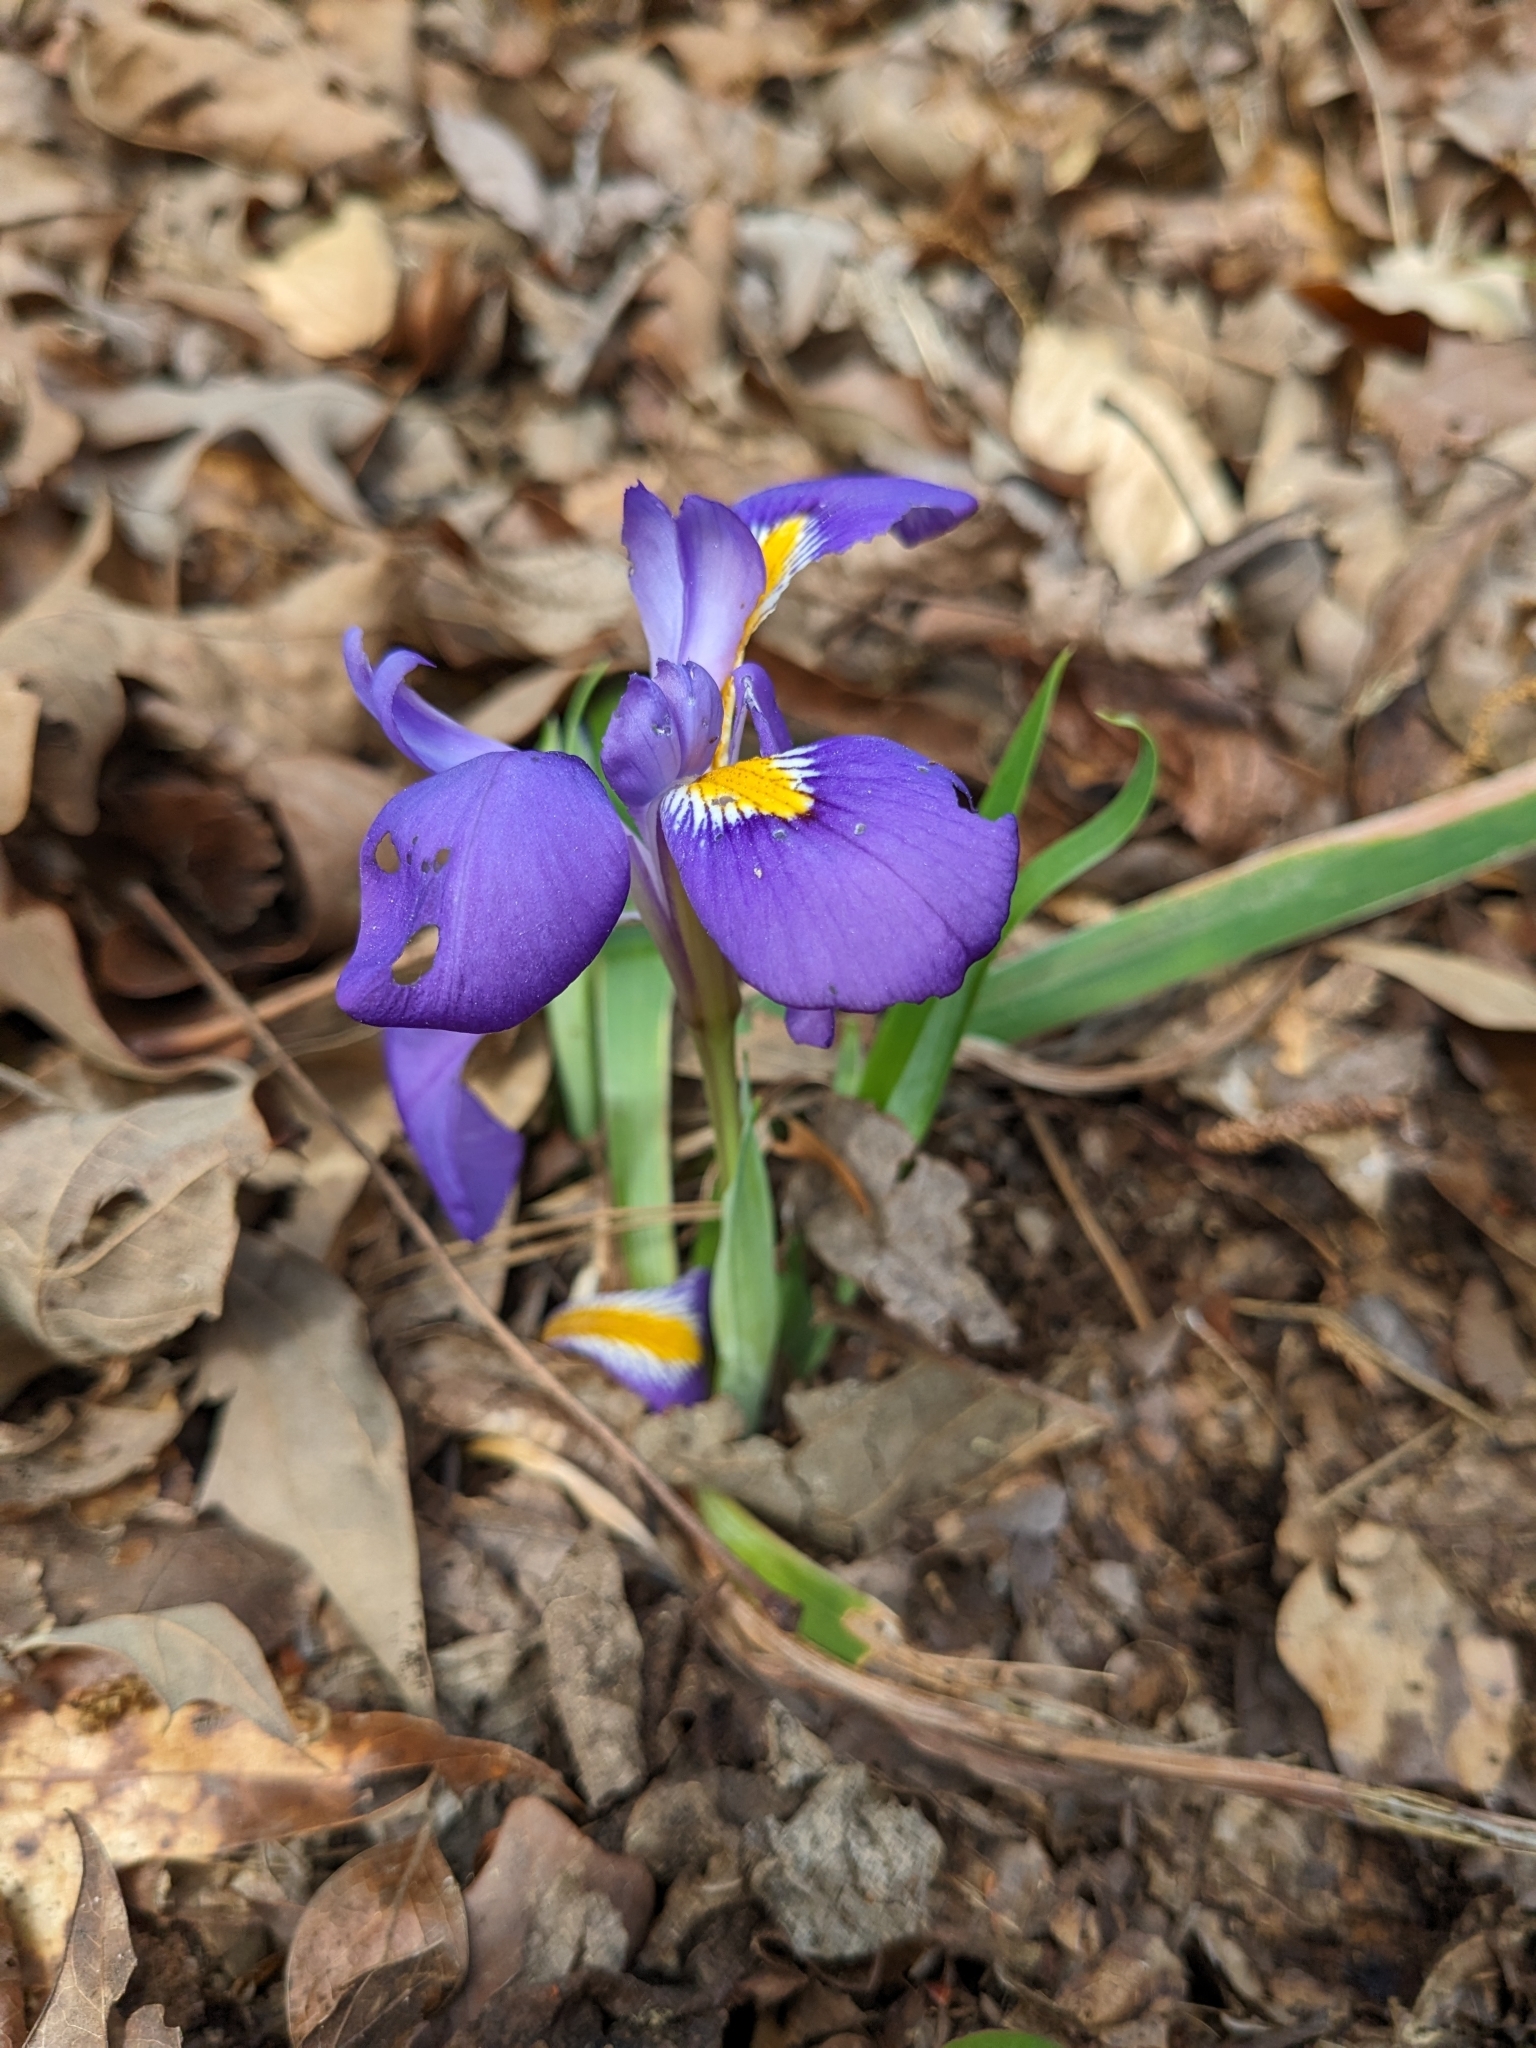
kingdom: Plantae
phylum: Tracheophyta
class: Liliopsida
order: Asparagales
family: Iridaceae
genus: Iris
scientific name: Iris verna
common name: Dwarf iris
